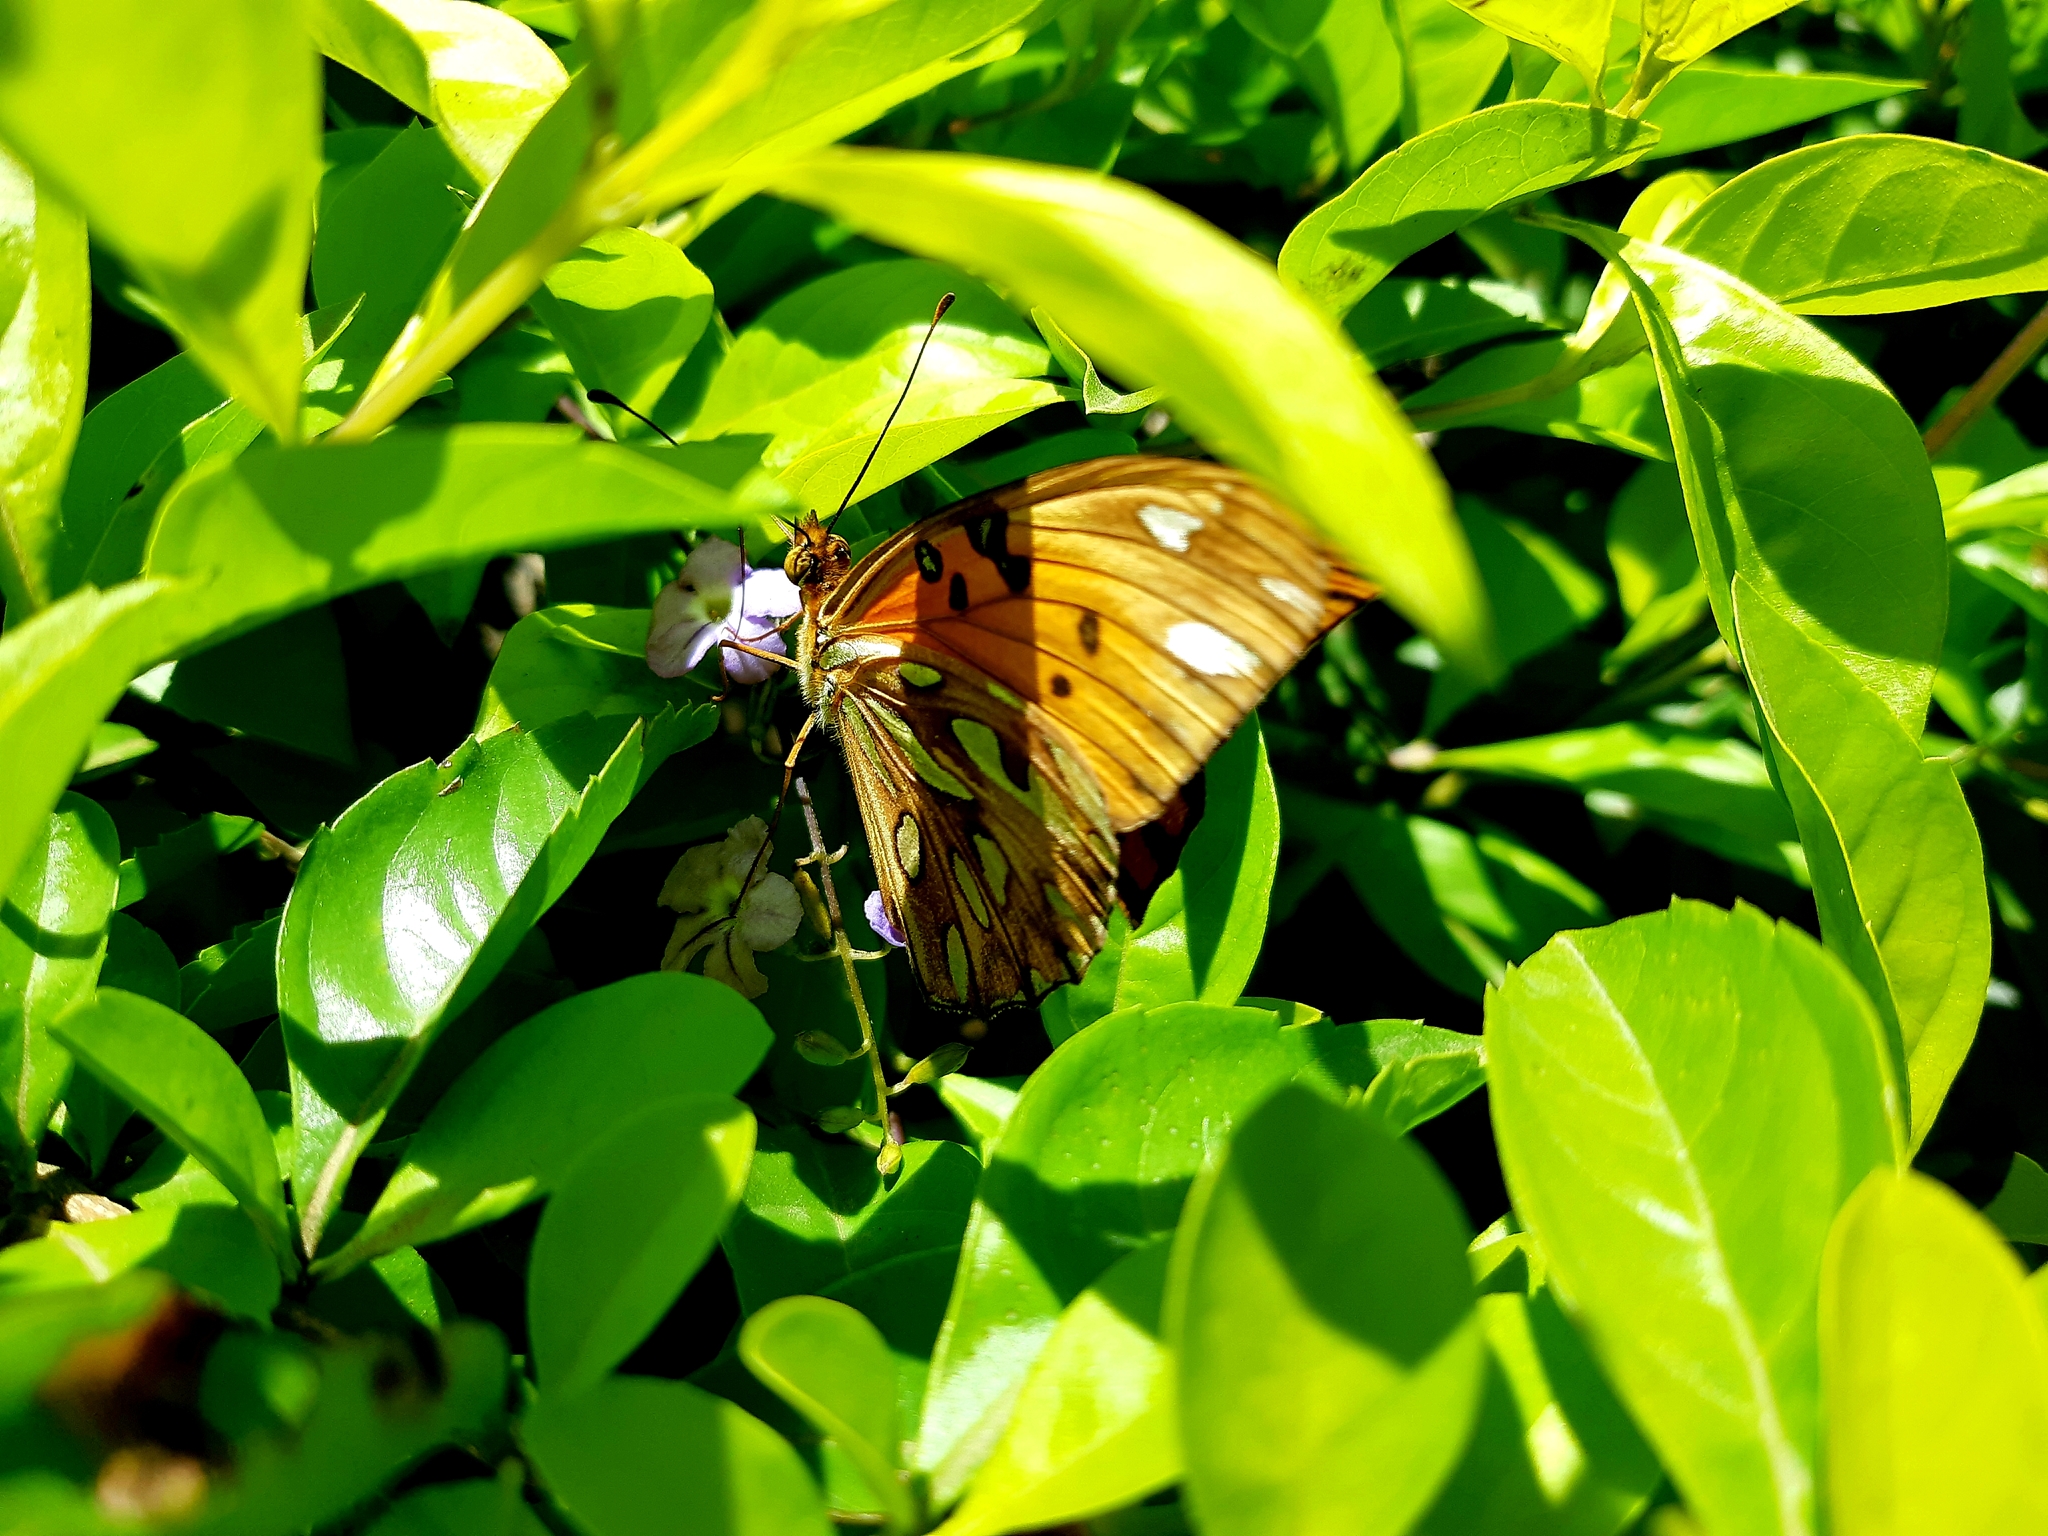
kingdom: Animalia
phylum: Arthropoda
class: Insecta
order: Lepidoptera
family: Nymphalidae
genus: Dione
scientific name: Dione vanillae
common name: Gulf fritillary
